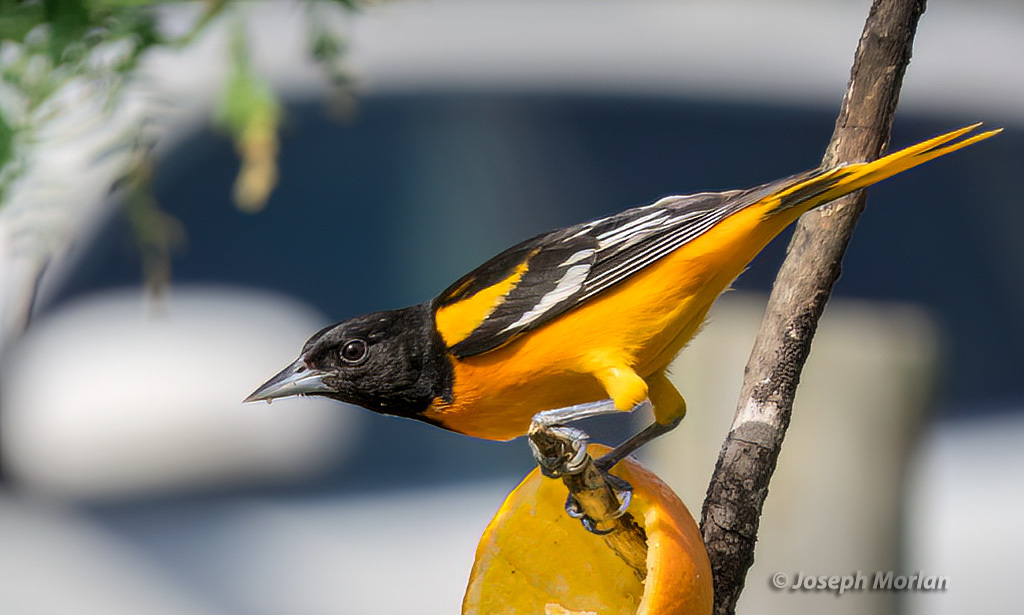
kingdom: Animalia
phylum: Chordata
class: Aves
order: Passeriformes
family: Icteridae
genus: Icterus
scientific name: Icterus galbula
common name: Baltimore oriole
